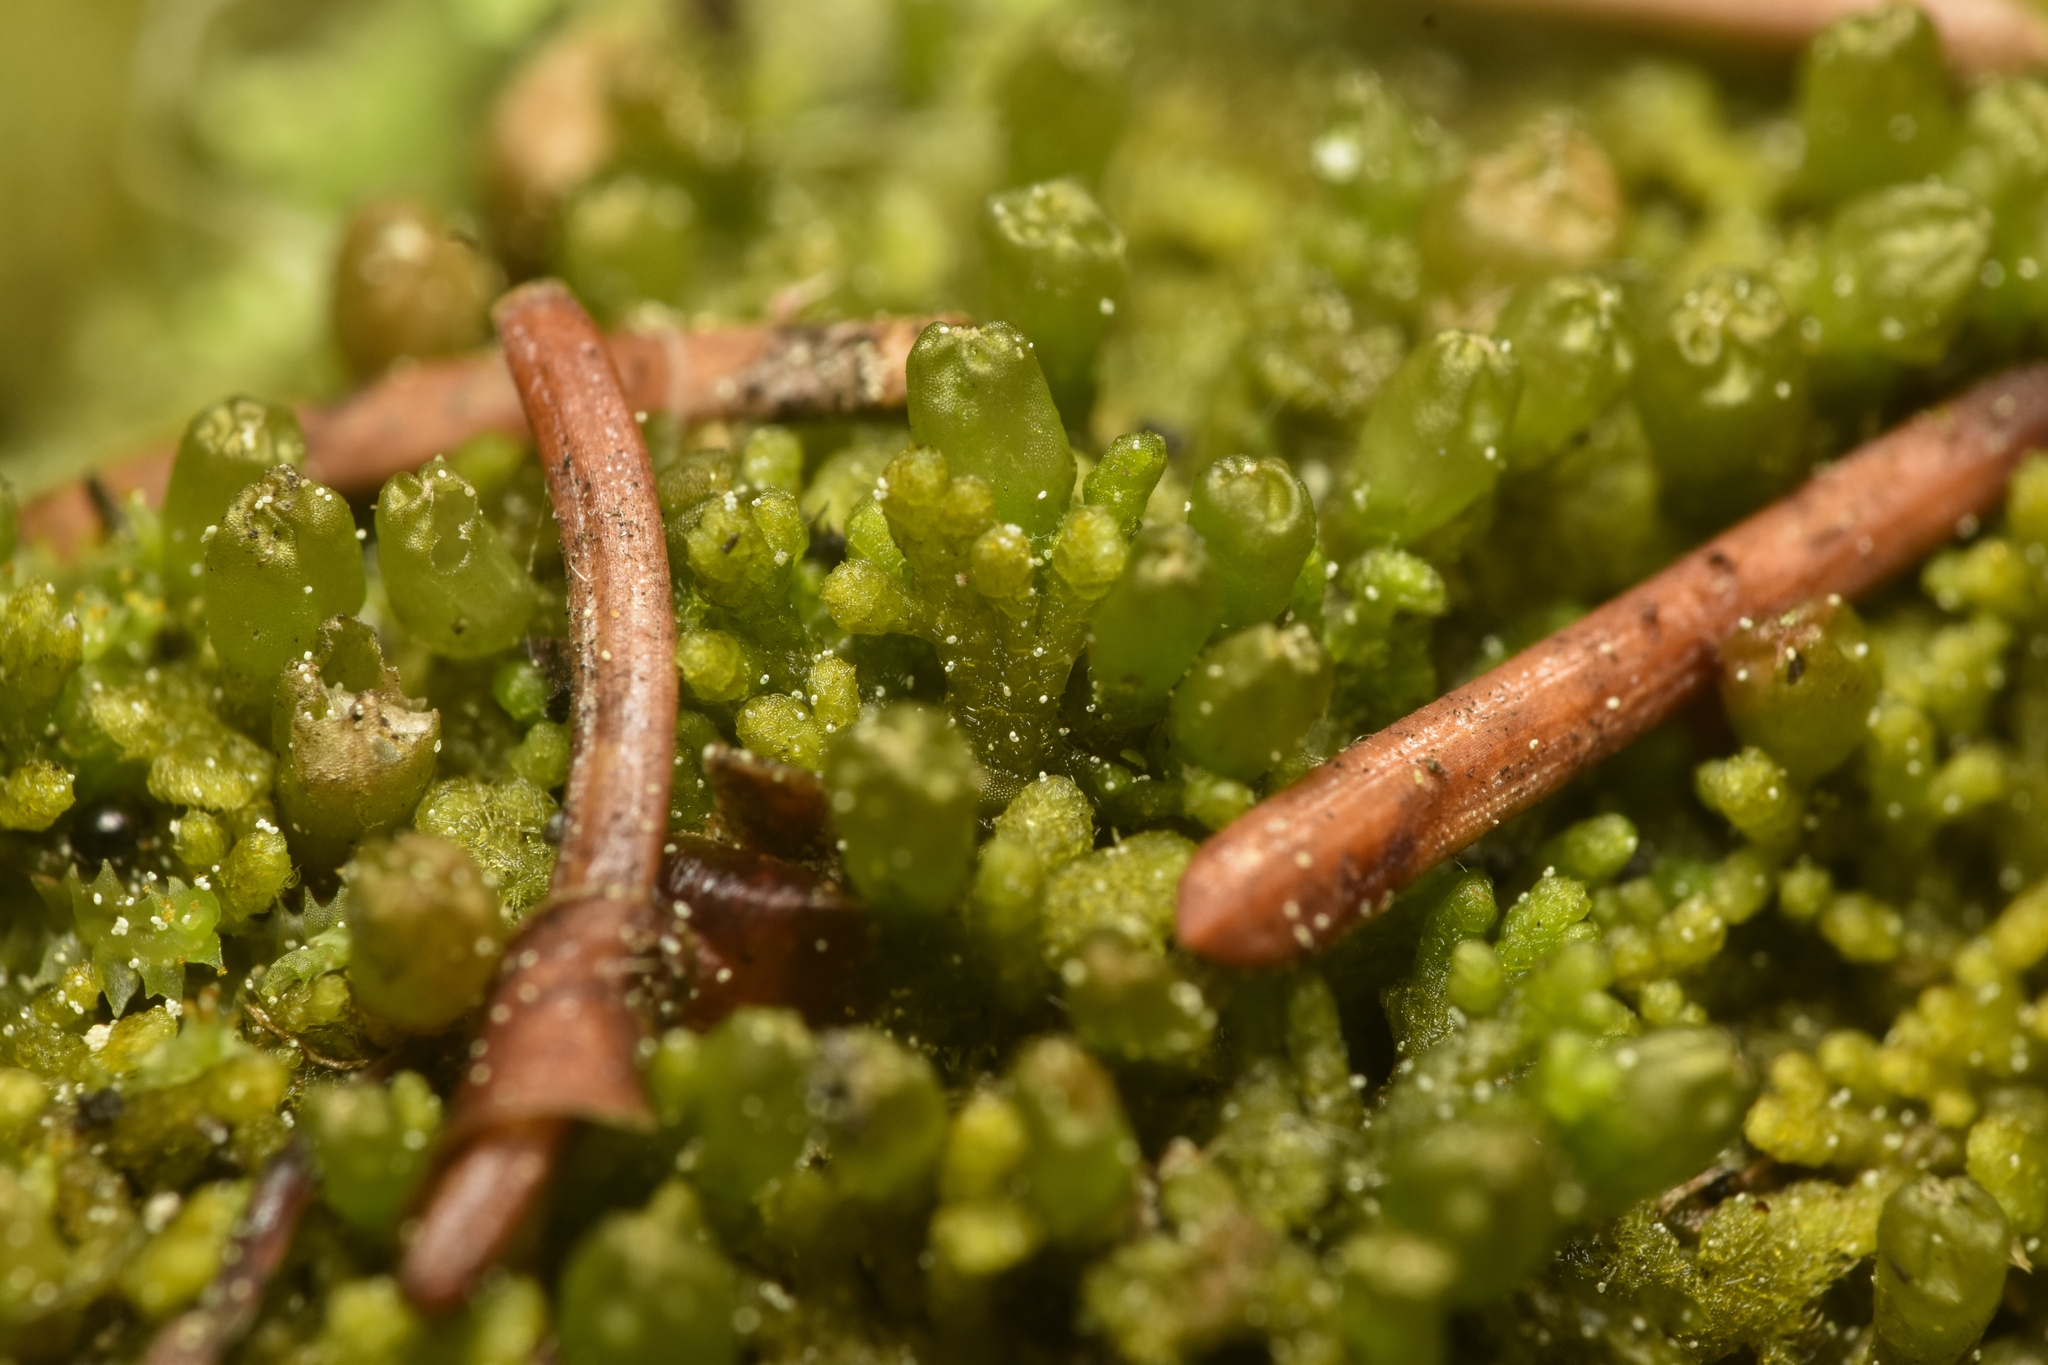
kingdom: Plantae
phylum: Marchantiophyta
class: Jungermanniopsida
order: Ptilidiales
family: Ptilidiaceae
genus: Ptilidium
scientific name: Ptilidium pulcherrimum
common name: Tree fringewort
